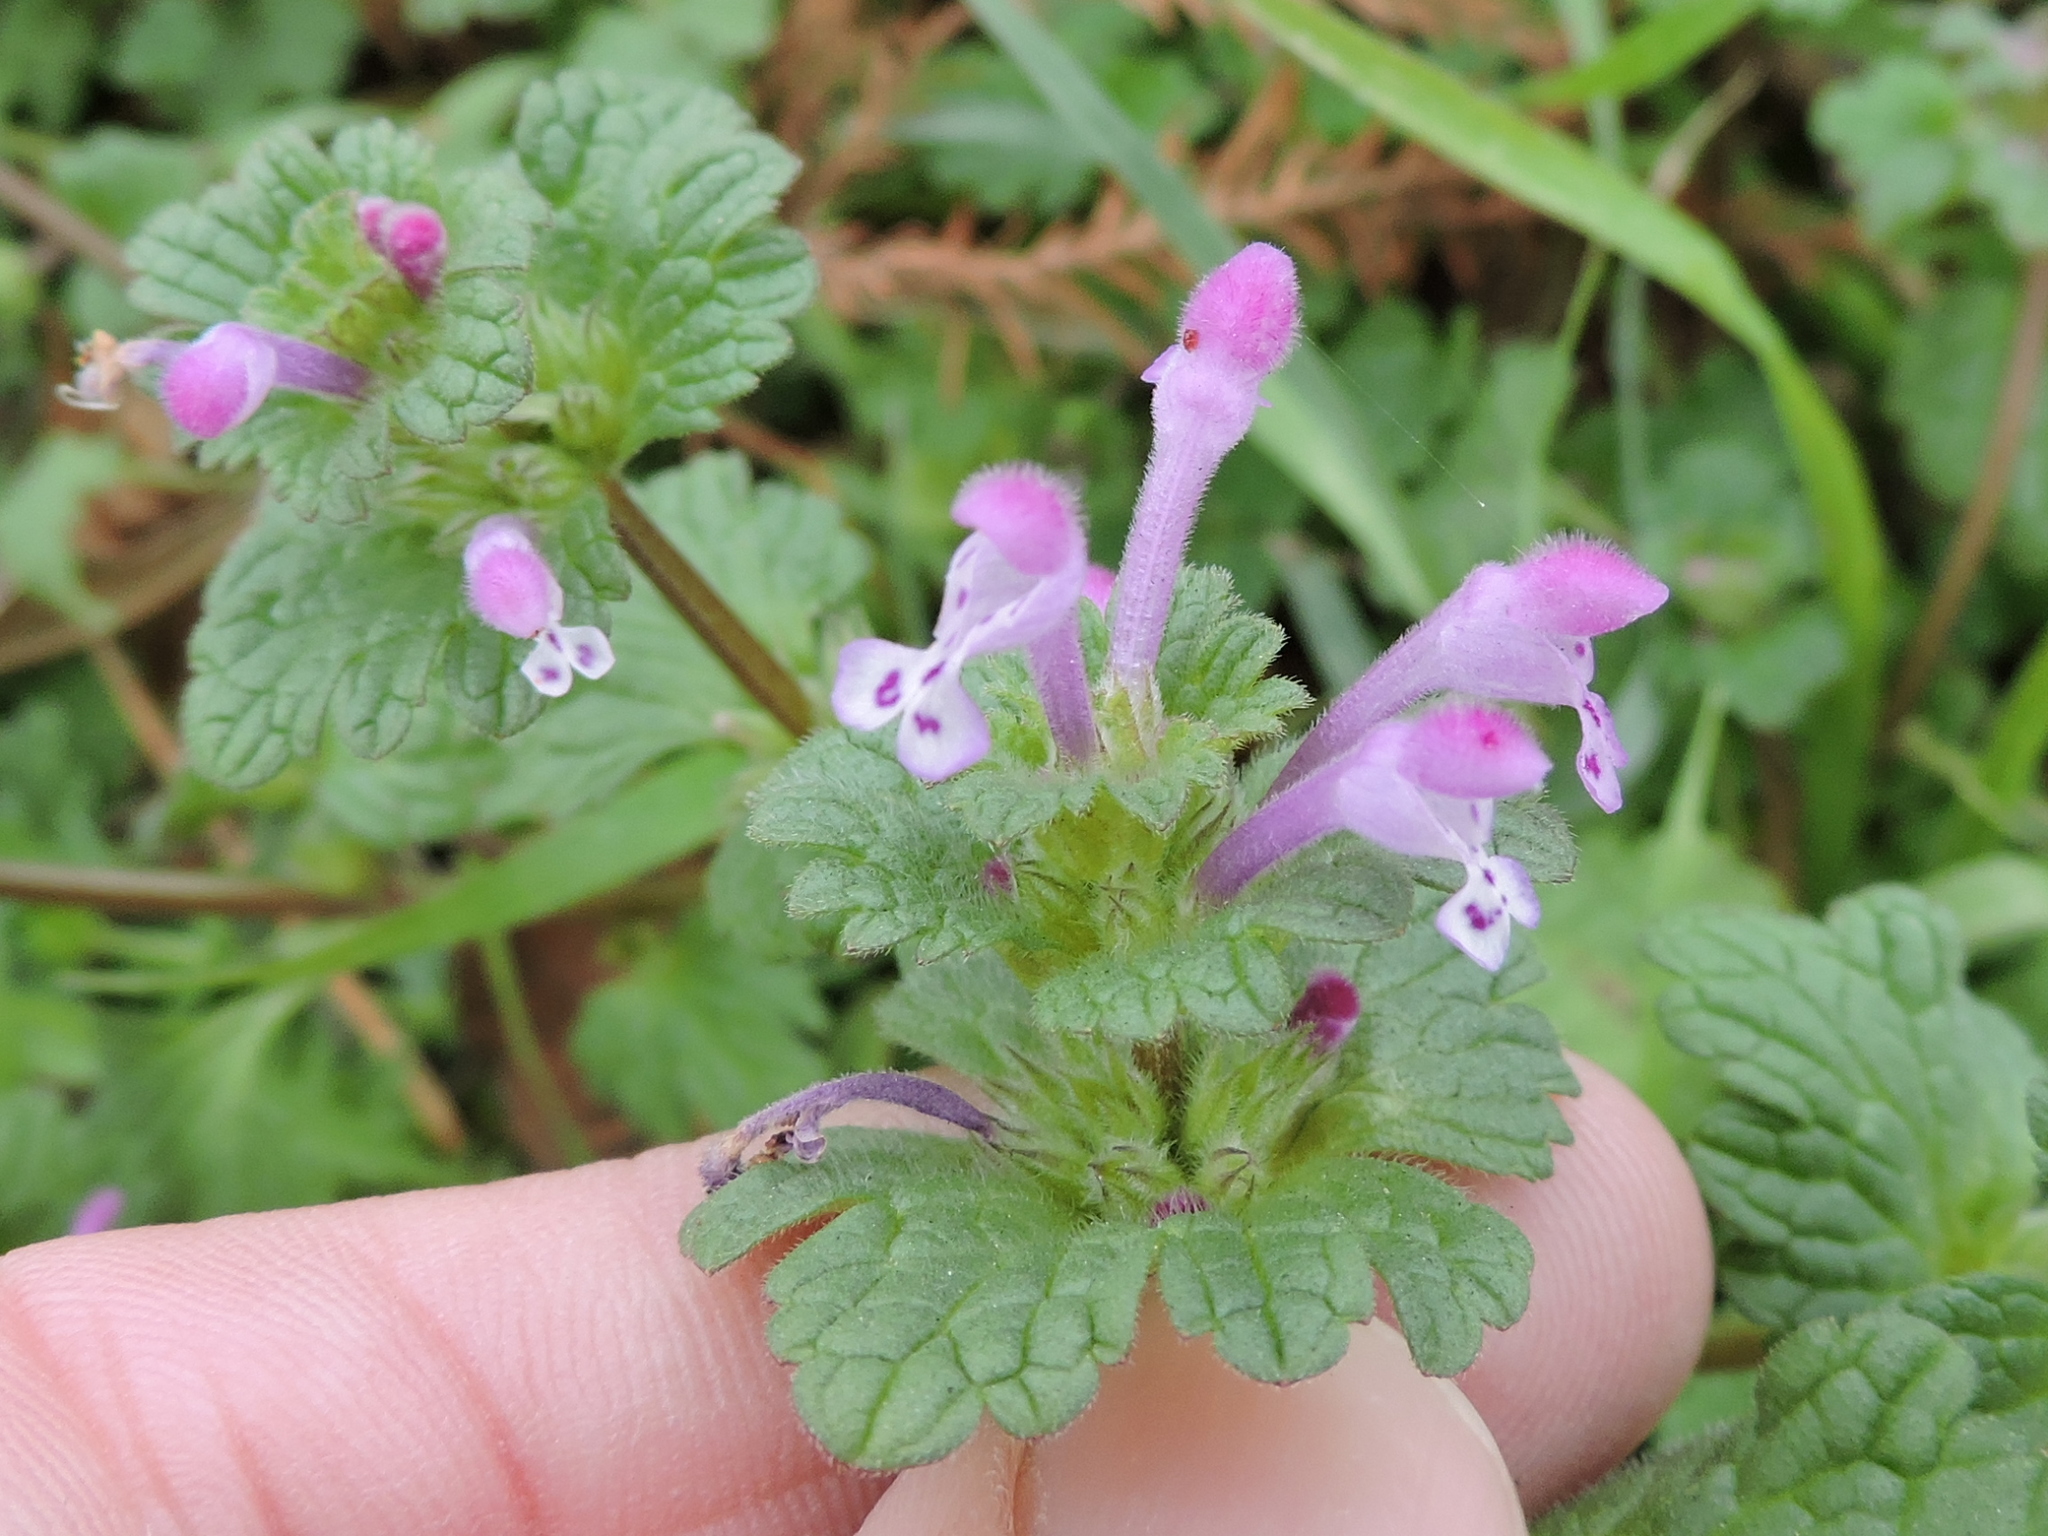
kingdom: Plantae
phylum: Tracheophyta
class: Magnoliopsida
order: Lamiales
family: Lamiaceae
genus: Lamium
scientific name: Lamium amplexicaule
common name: Henbit dead-nettle
